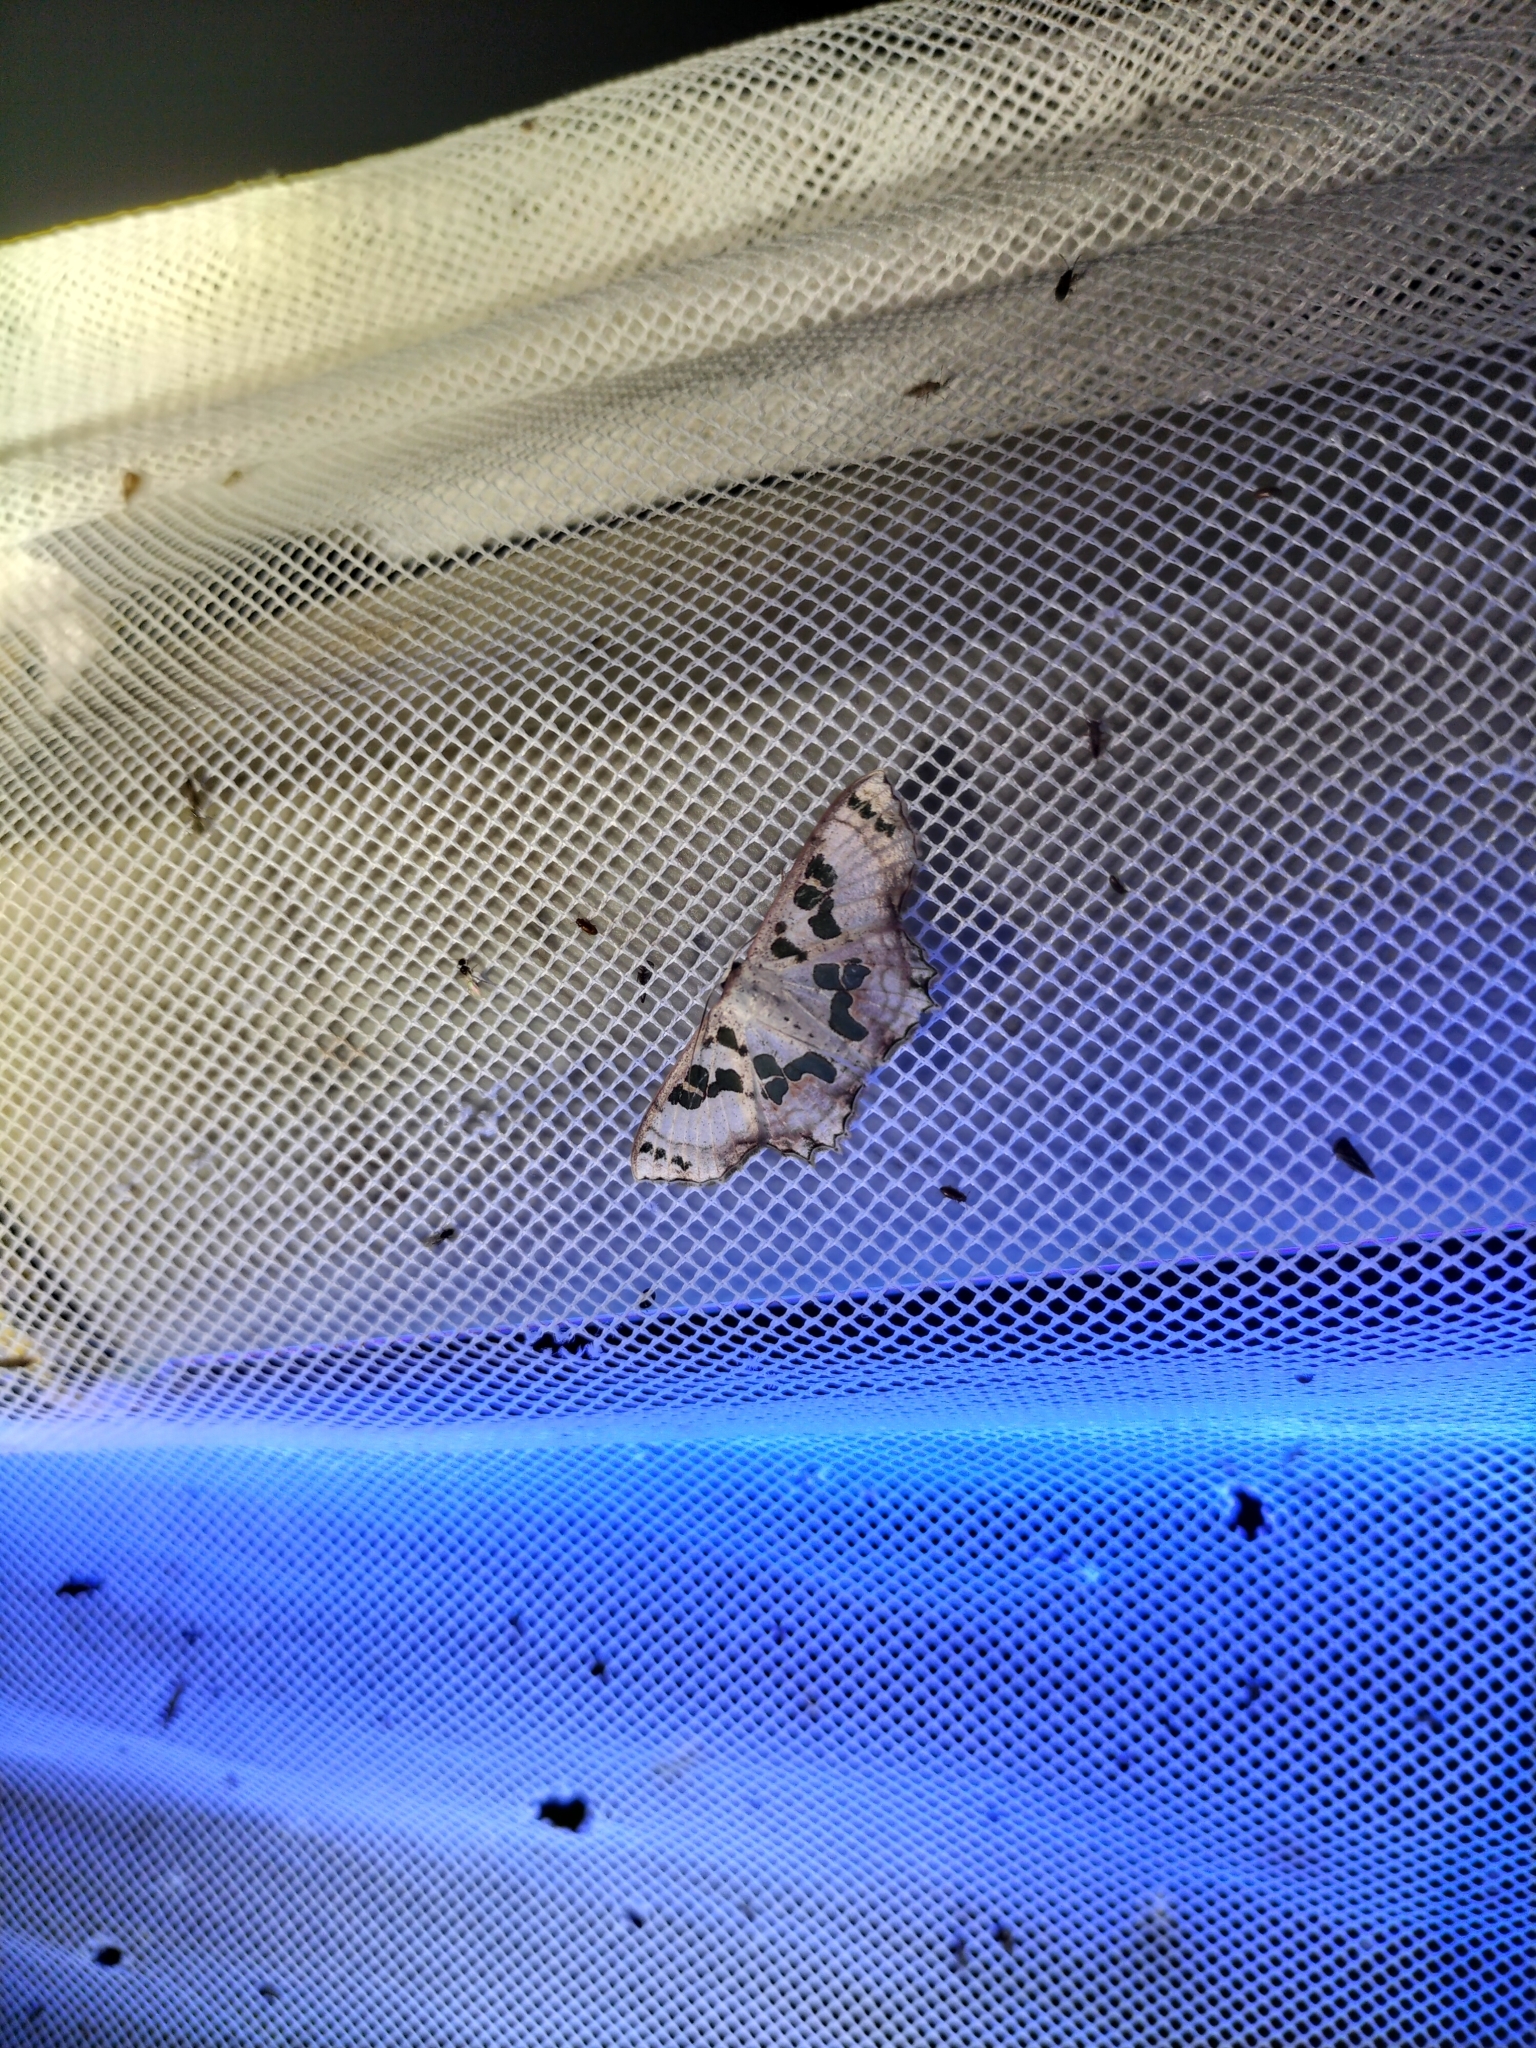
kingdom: Animalia
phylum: Arthropoda
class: Insecta
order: Lepidoptera
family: Geometridae
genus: Scopula
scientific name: Scopula parvimacula
